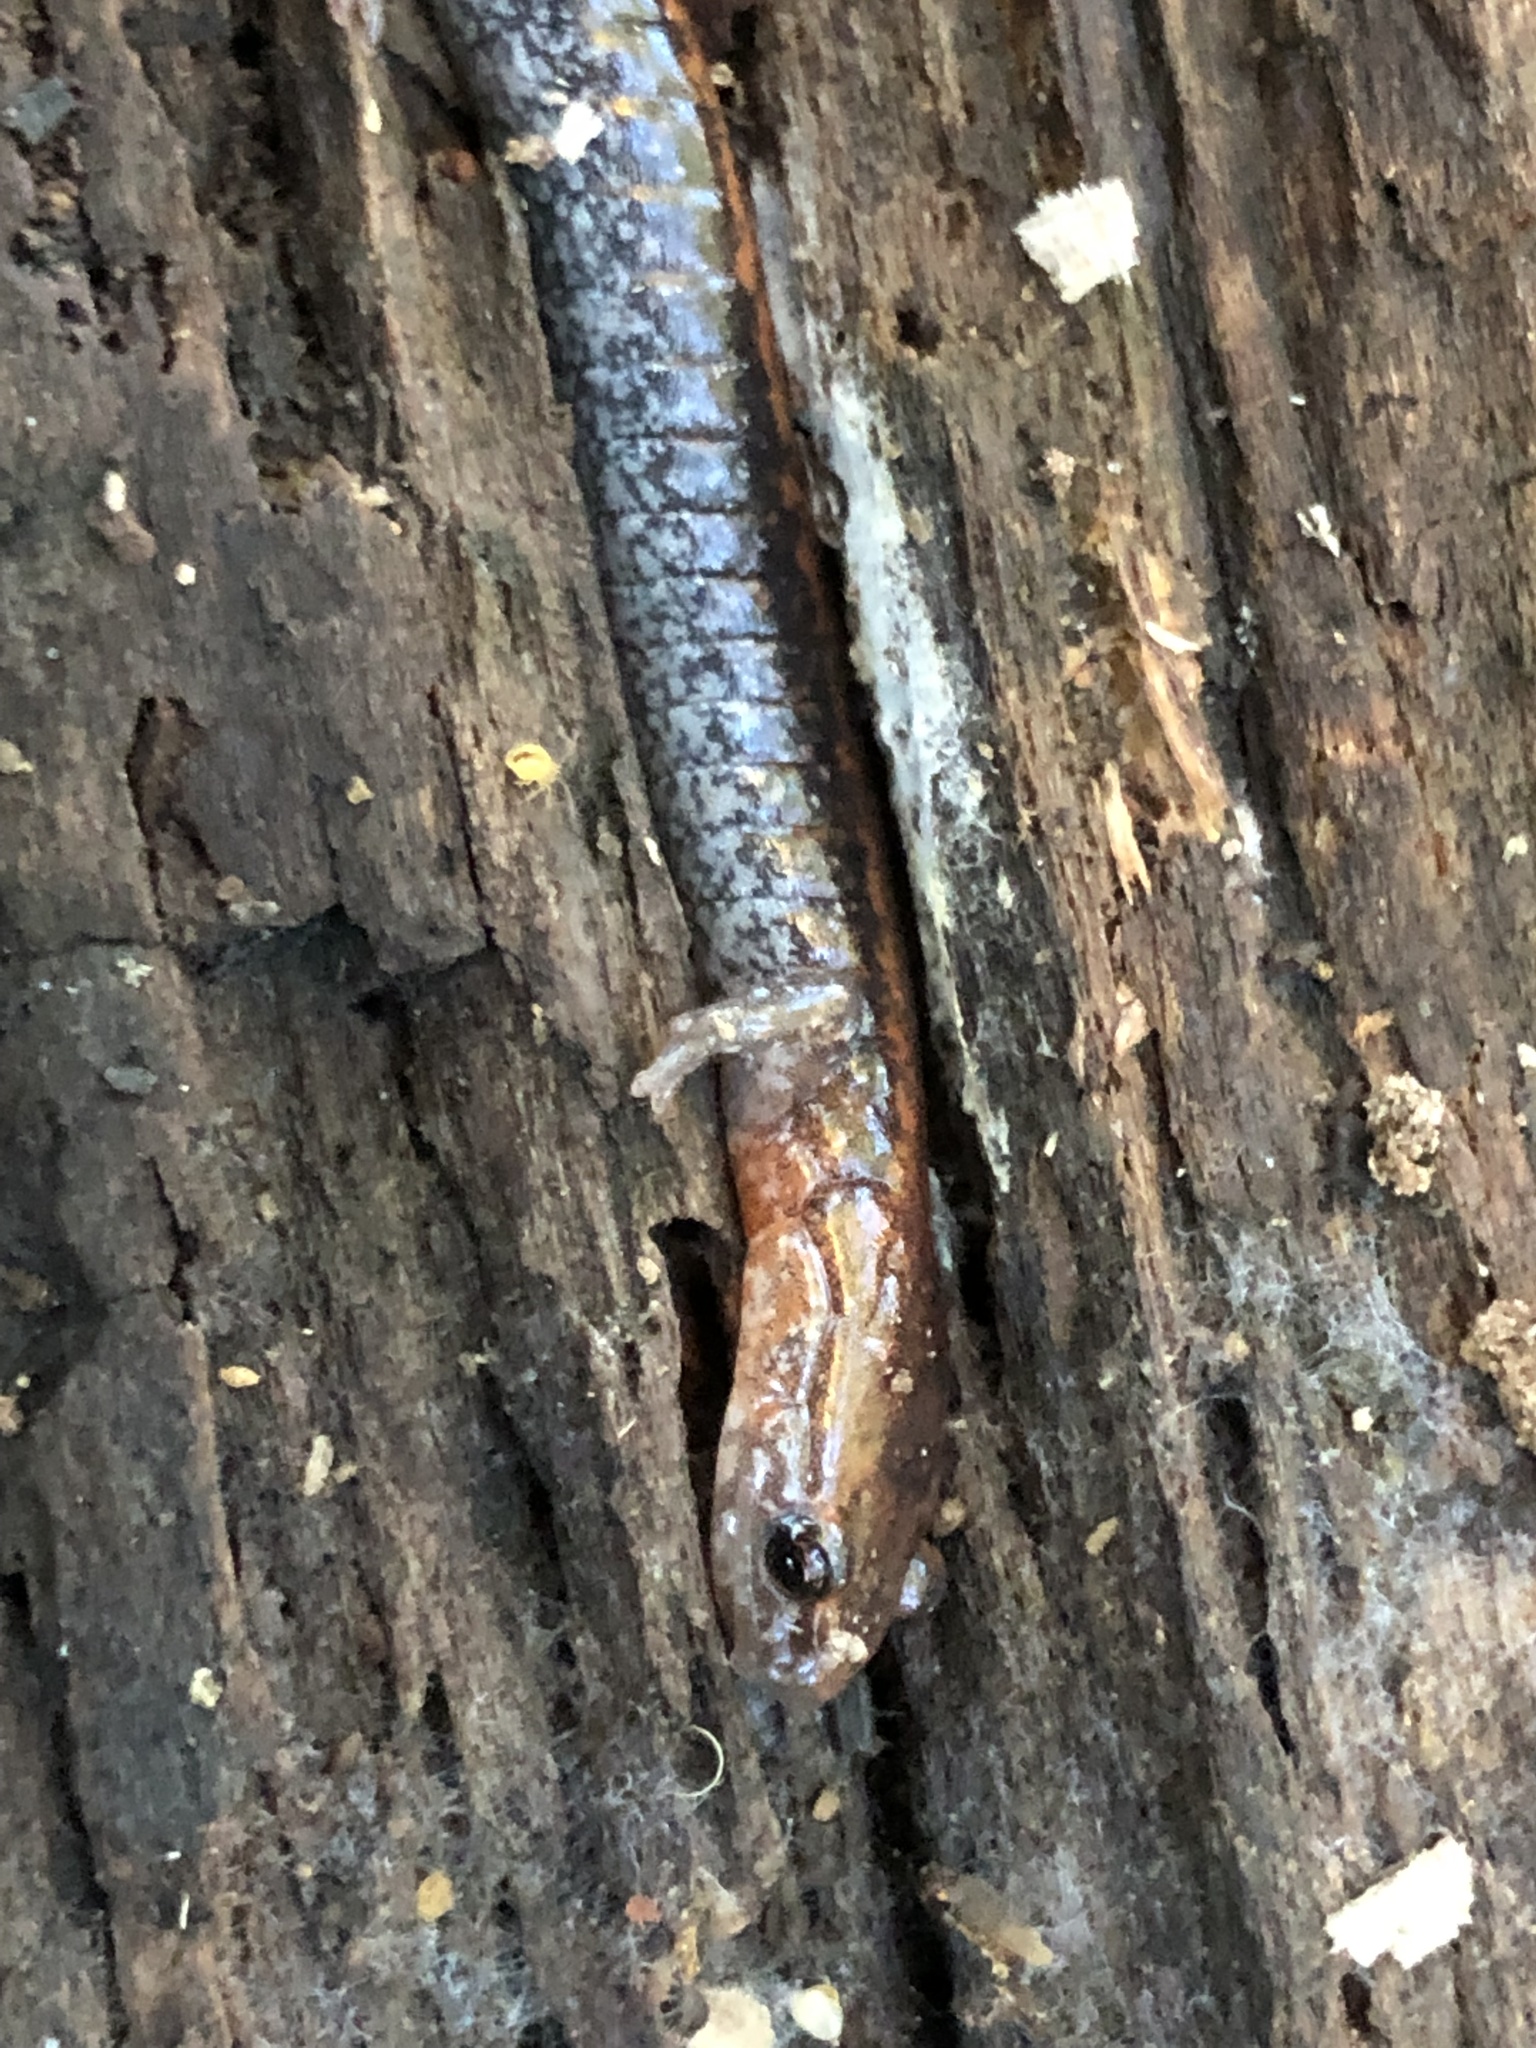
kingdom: Animalia
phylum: Chordata
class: Amphibia
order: Caudata
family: Plethodontidae
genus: Plethodon
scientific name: Plethodon cinereus
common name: Redback salamander
